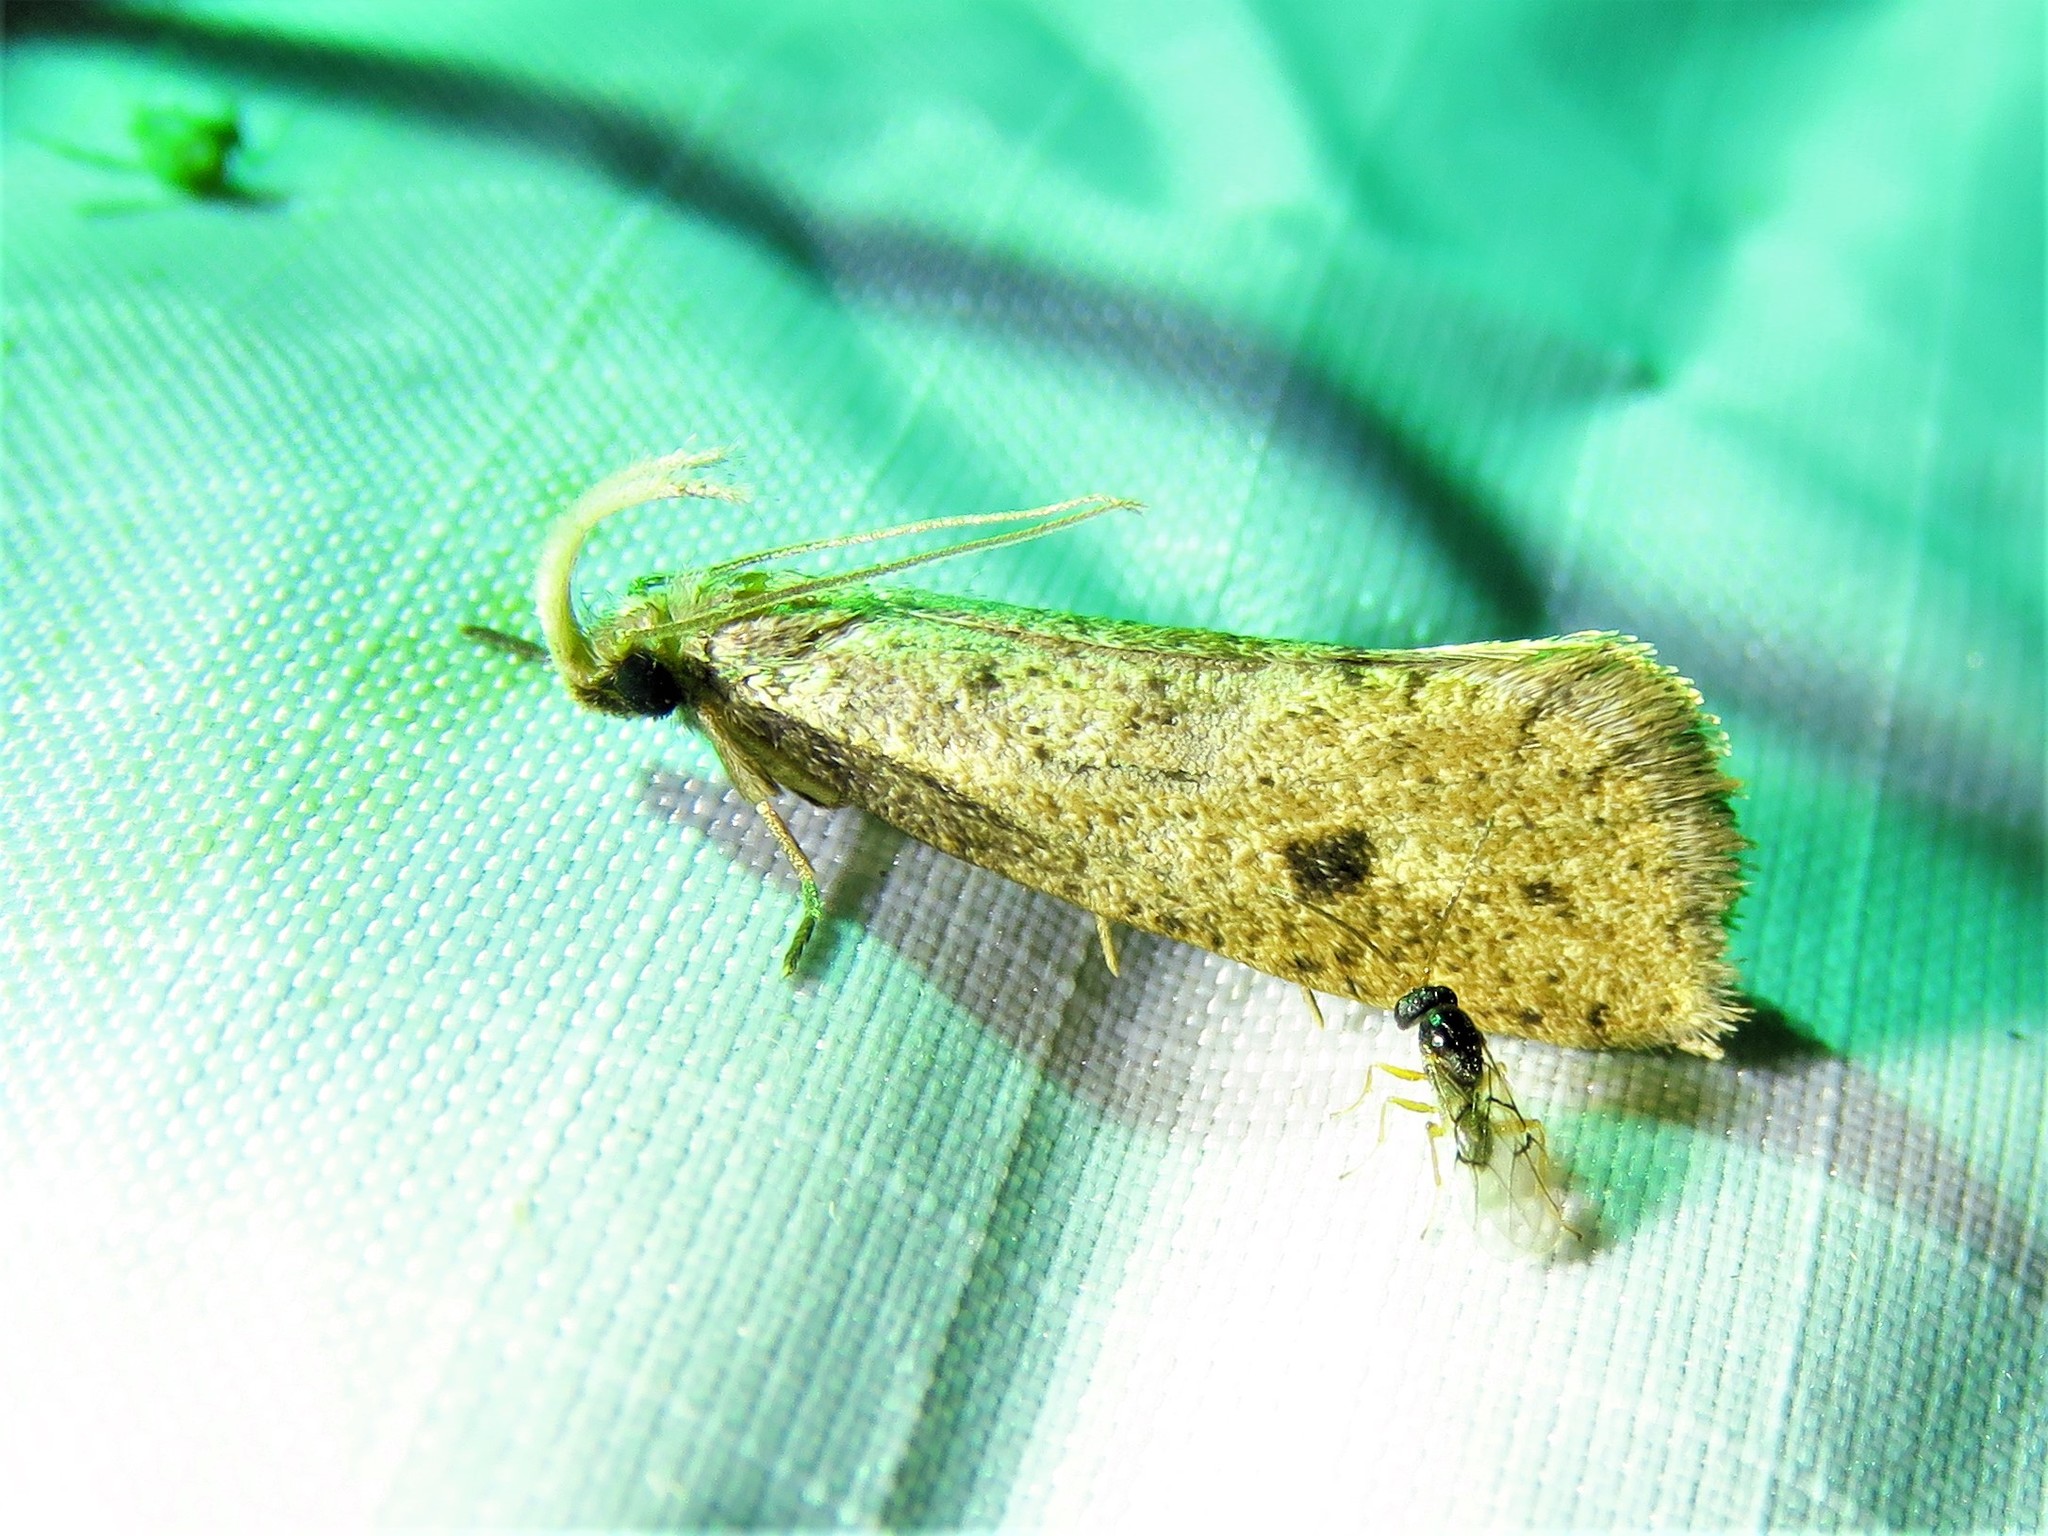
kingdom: Animalia
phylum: Arthropoda
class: Insecta
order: Lepidoptera
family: Tineidae
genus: Acrolophus
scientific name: Acrolophus mortipennella
